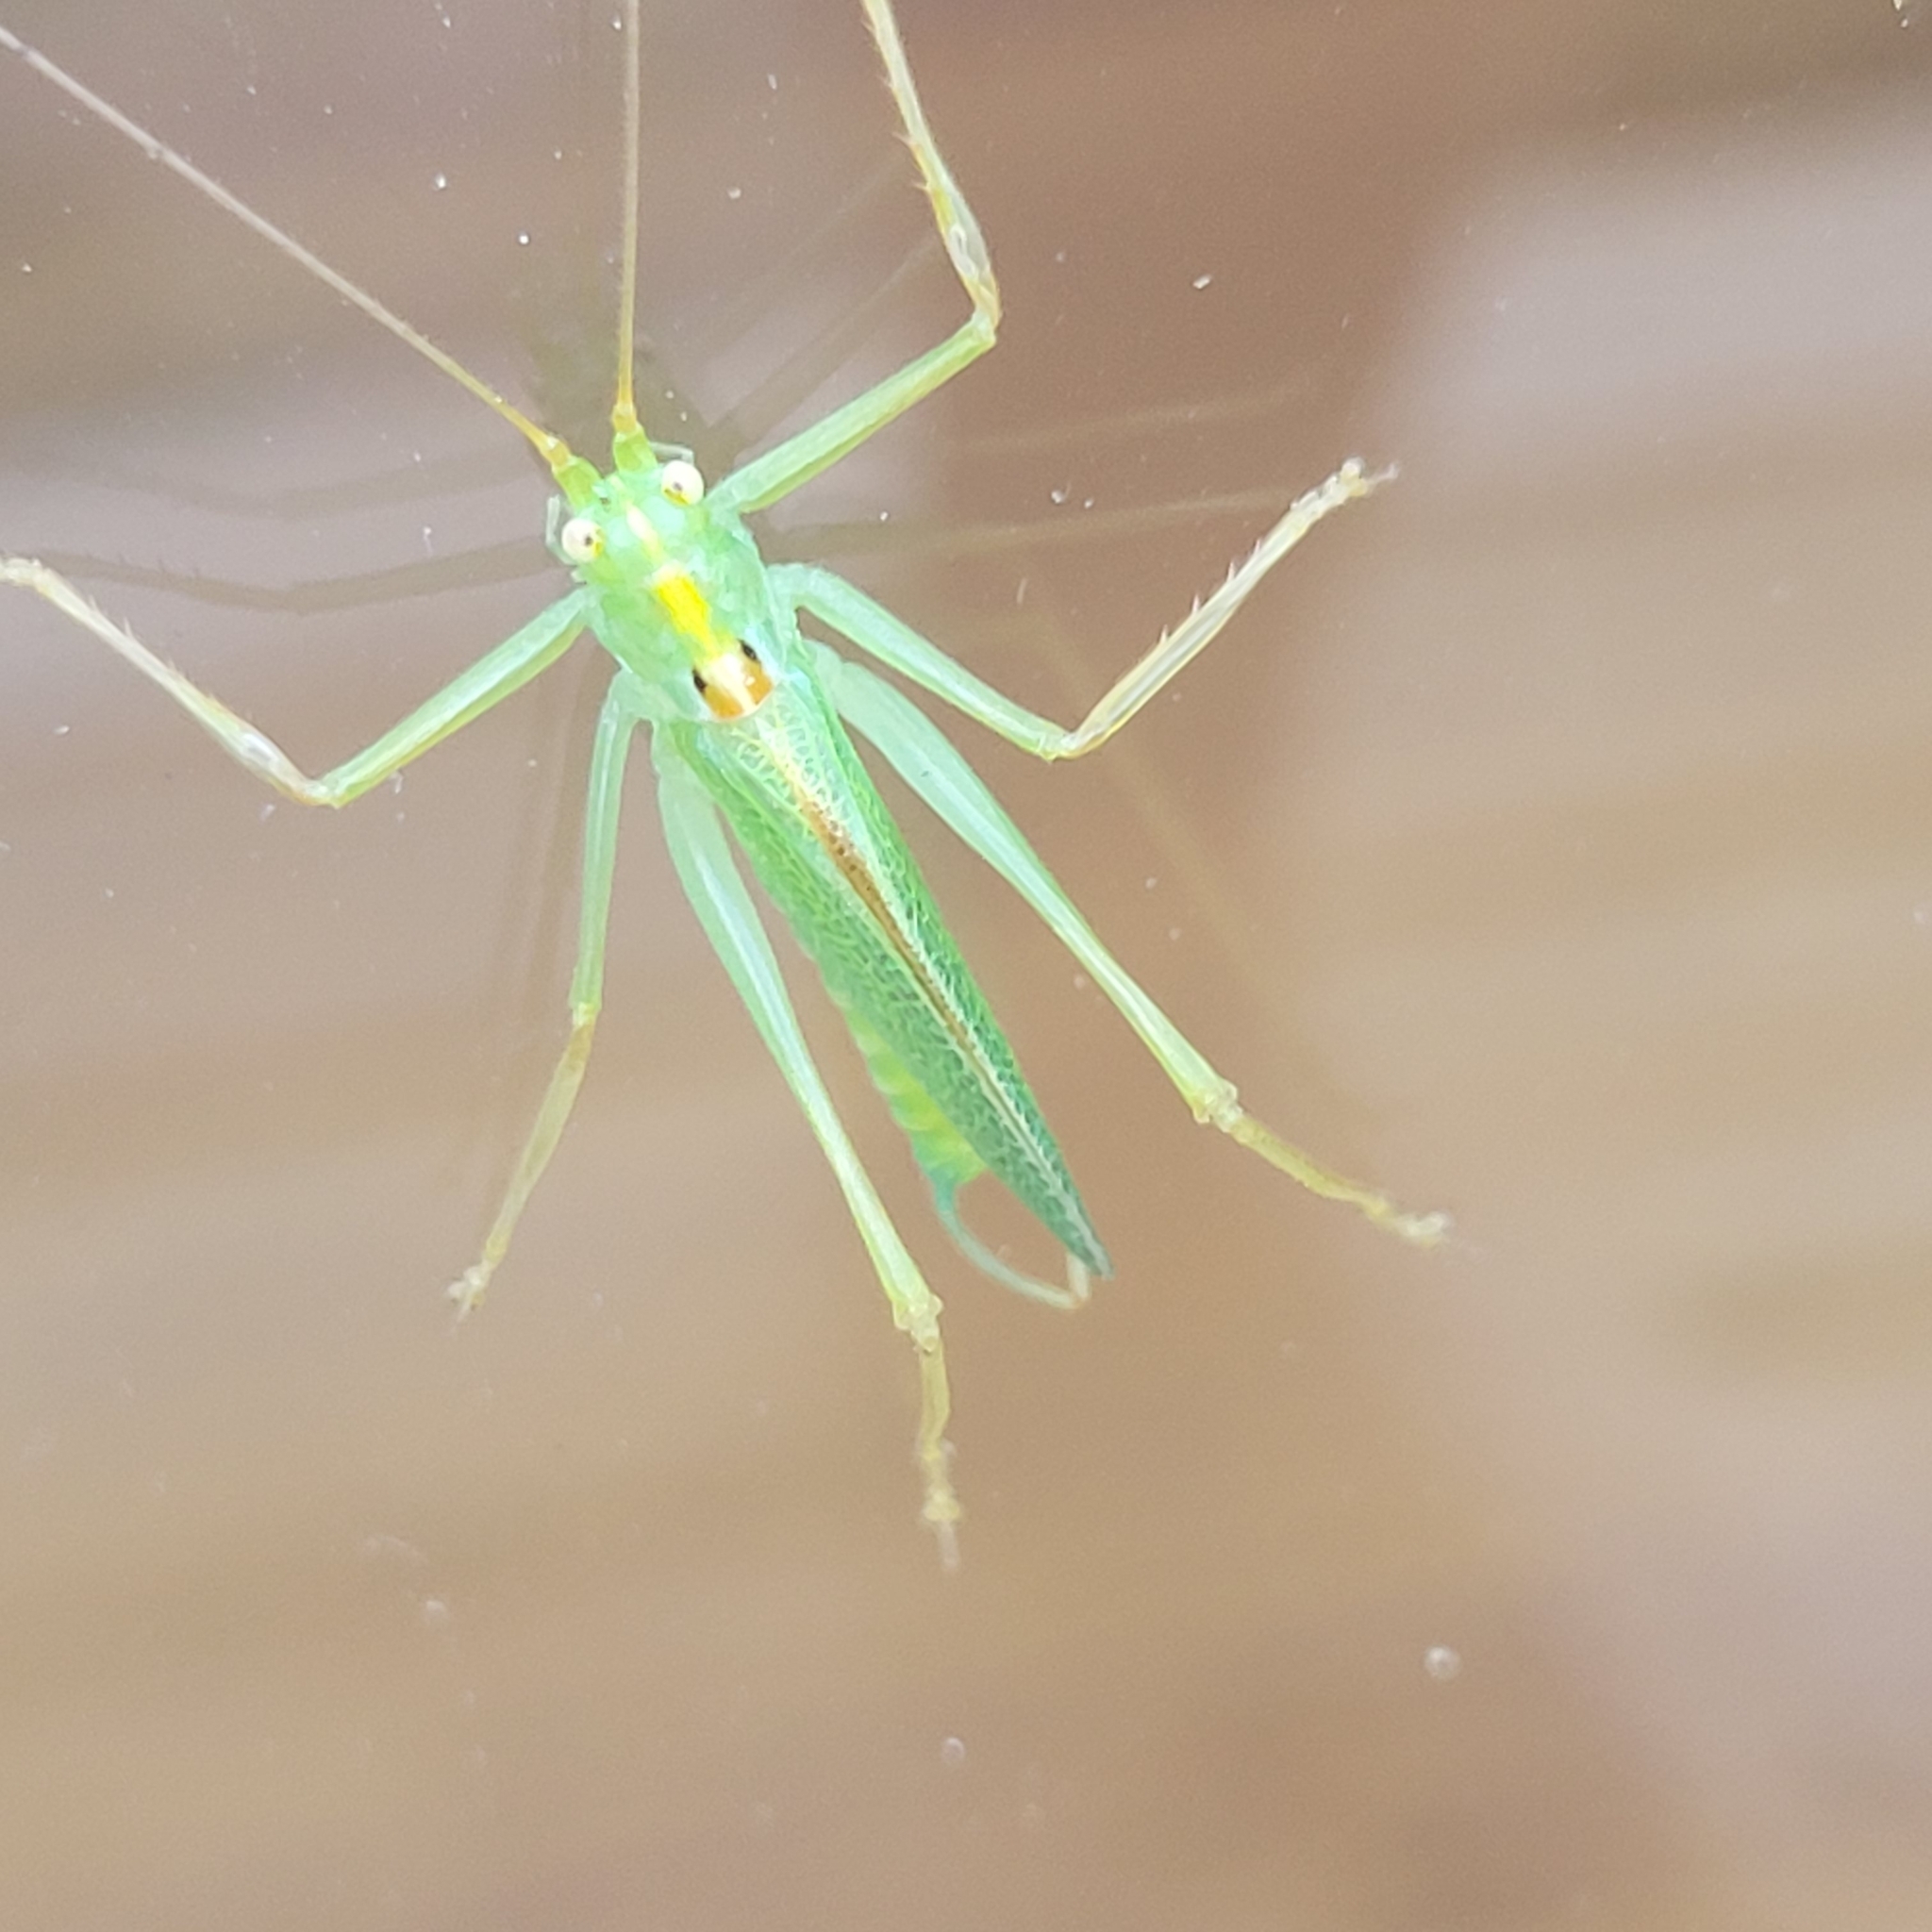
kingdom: Animalia
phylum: Arthropoda
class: Insecta
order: Orthoptera
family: Tettigoniidae
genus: Meconema
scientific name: Meconema thalassinum
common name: Oak bush-cricket
